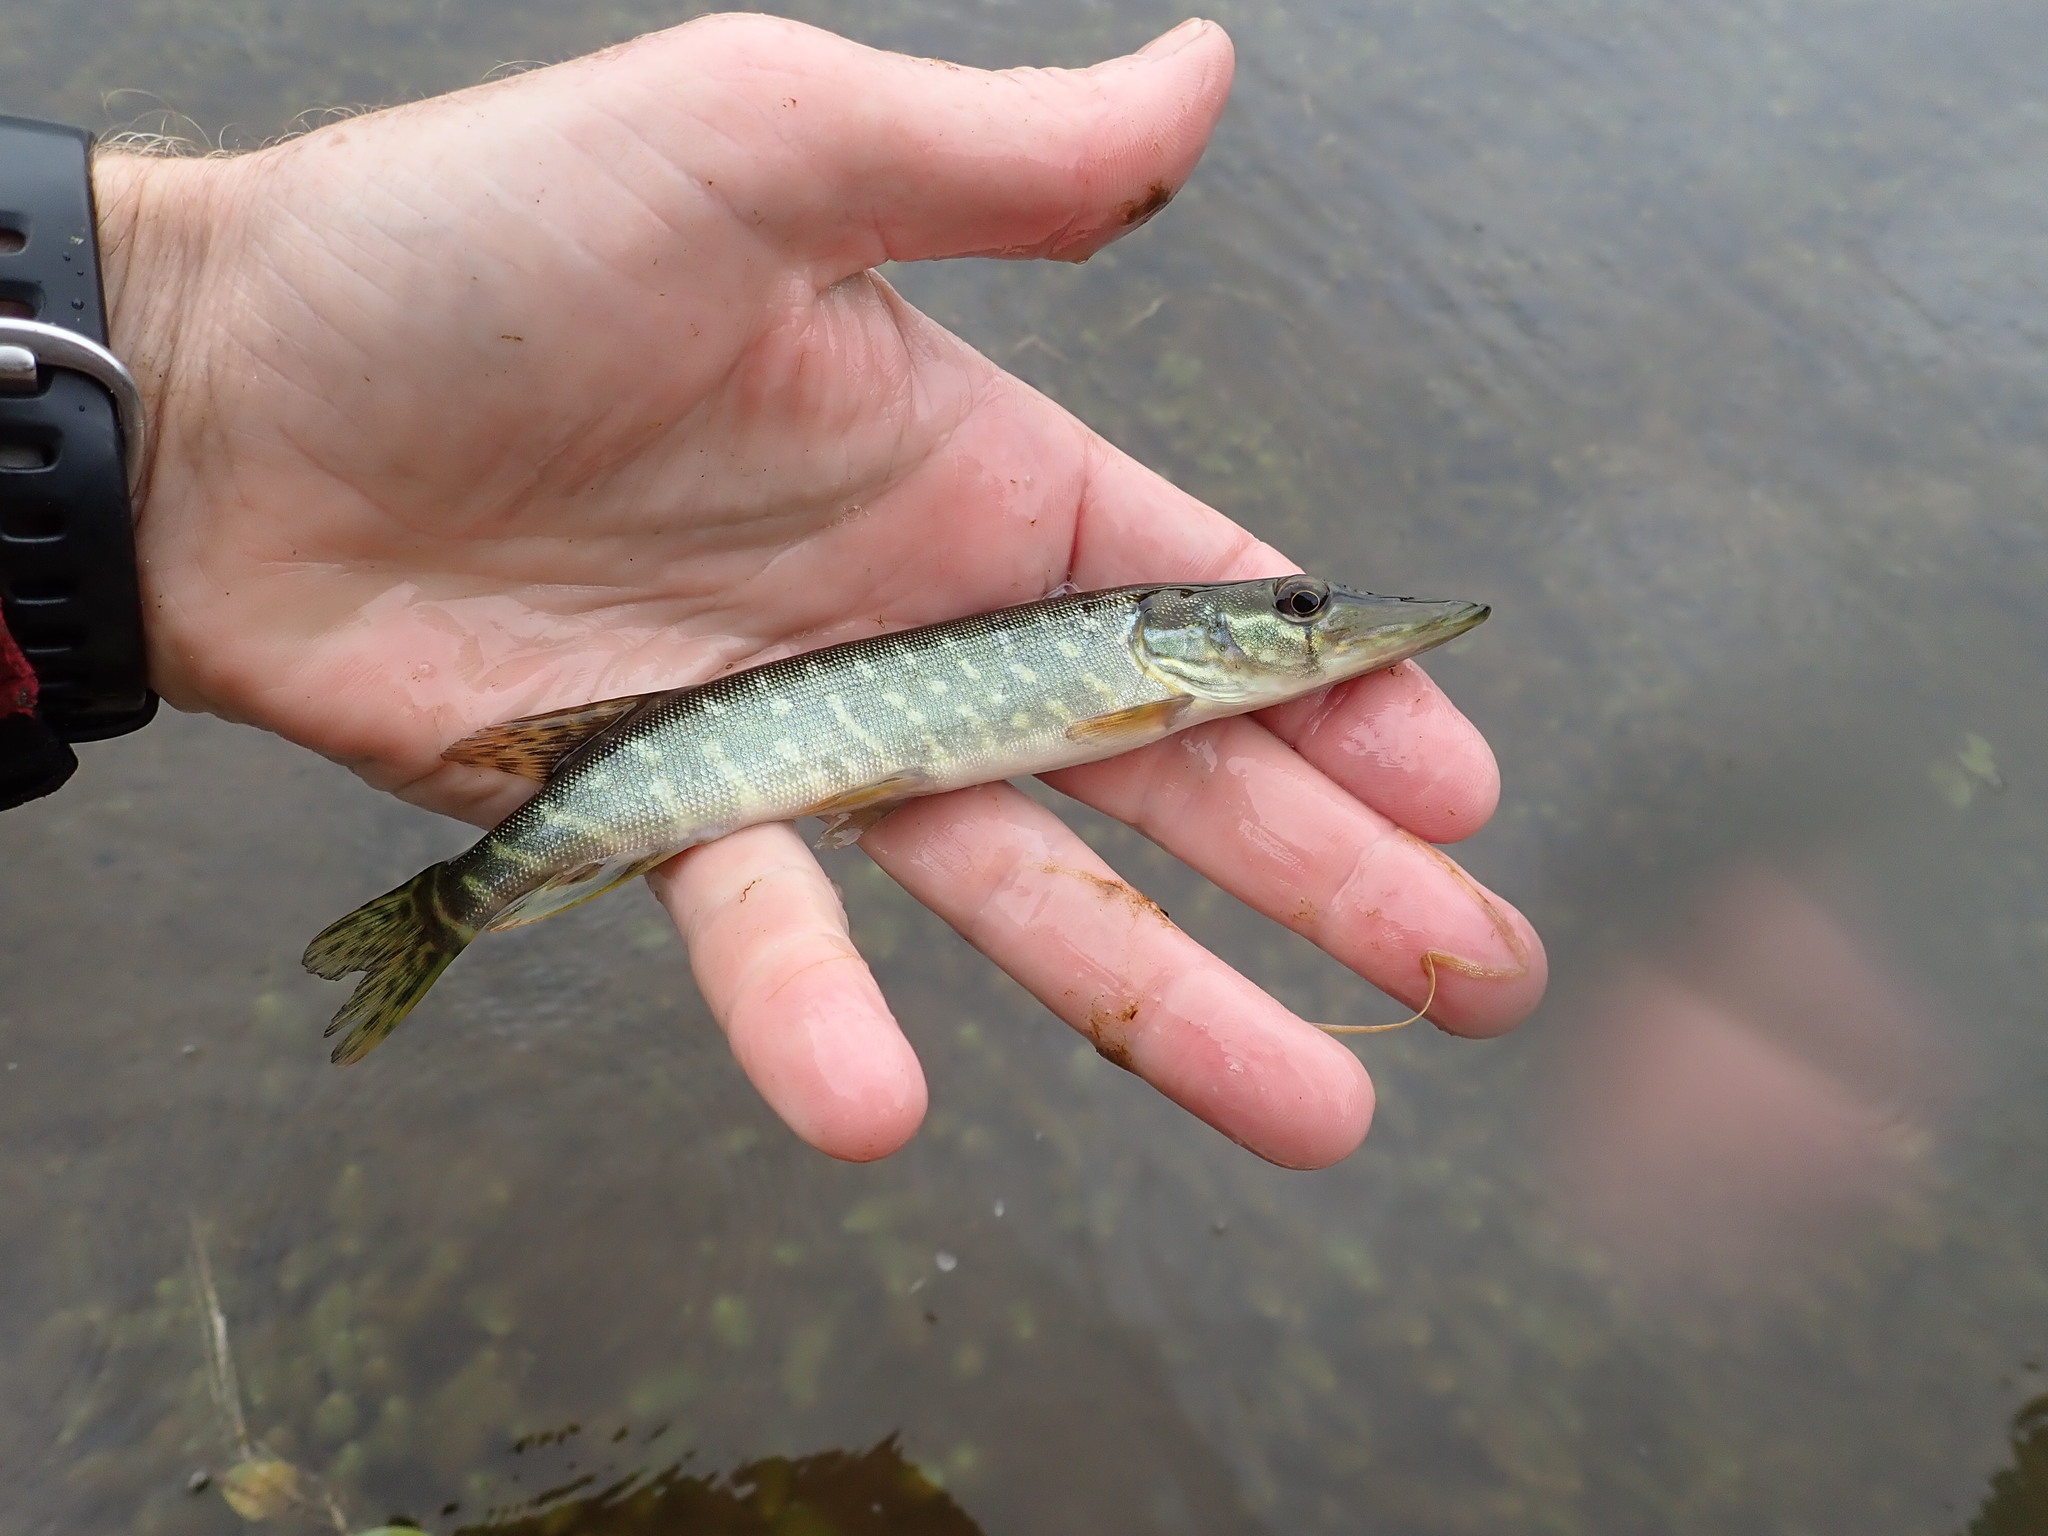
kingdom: Animalia
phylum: Chordata
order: Esociformes
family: Esocidae
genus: Esox
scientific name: Esox lucius
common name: Northern pike
